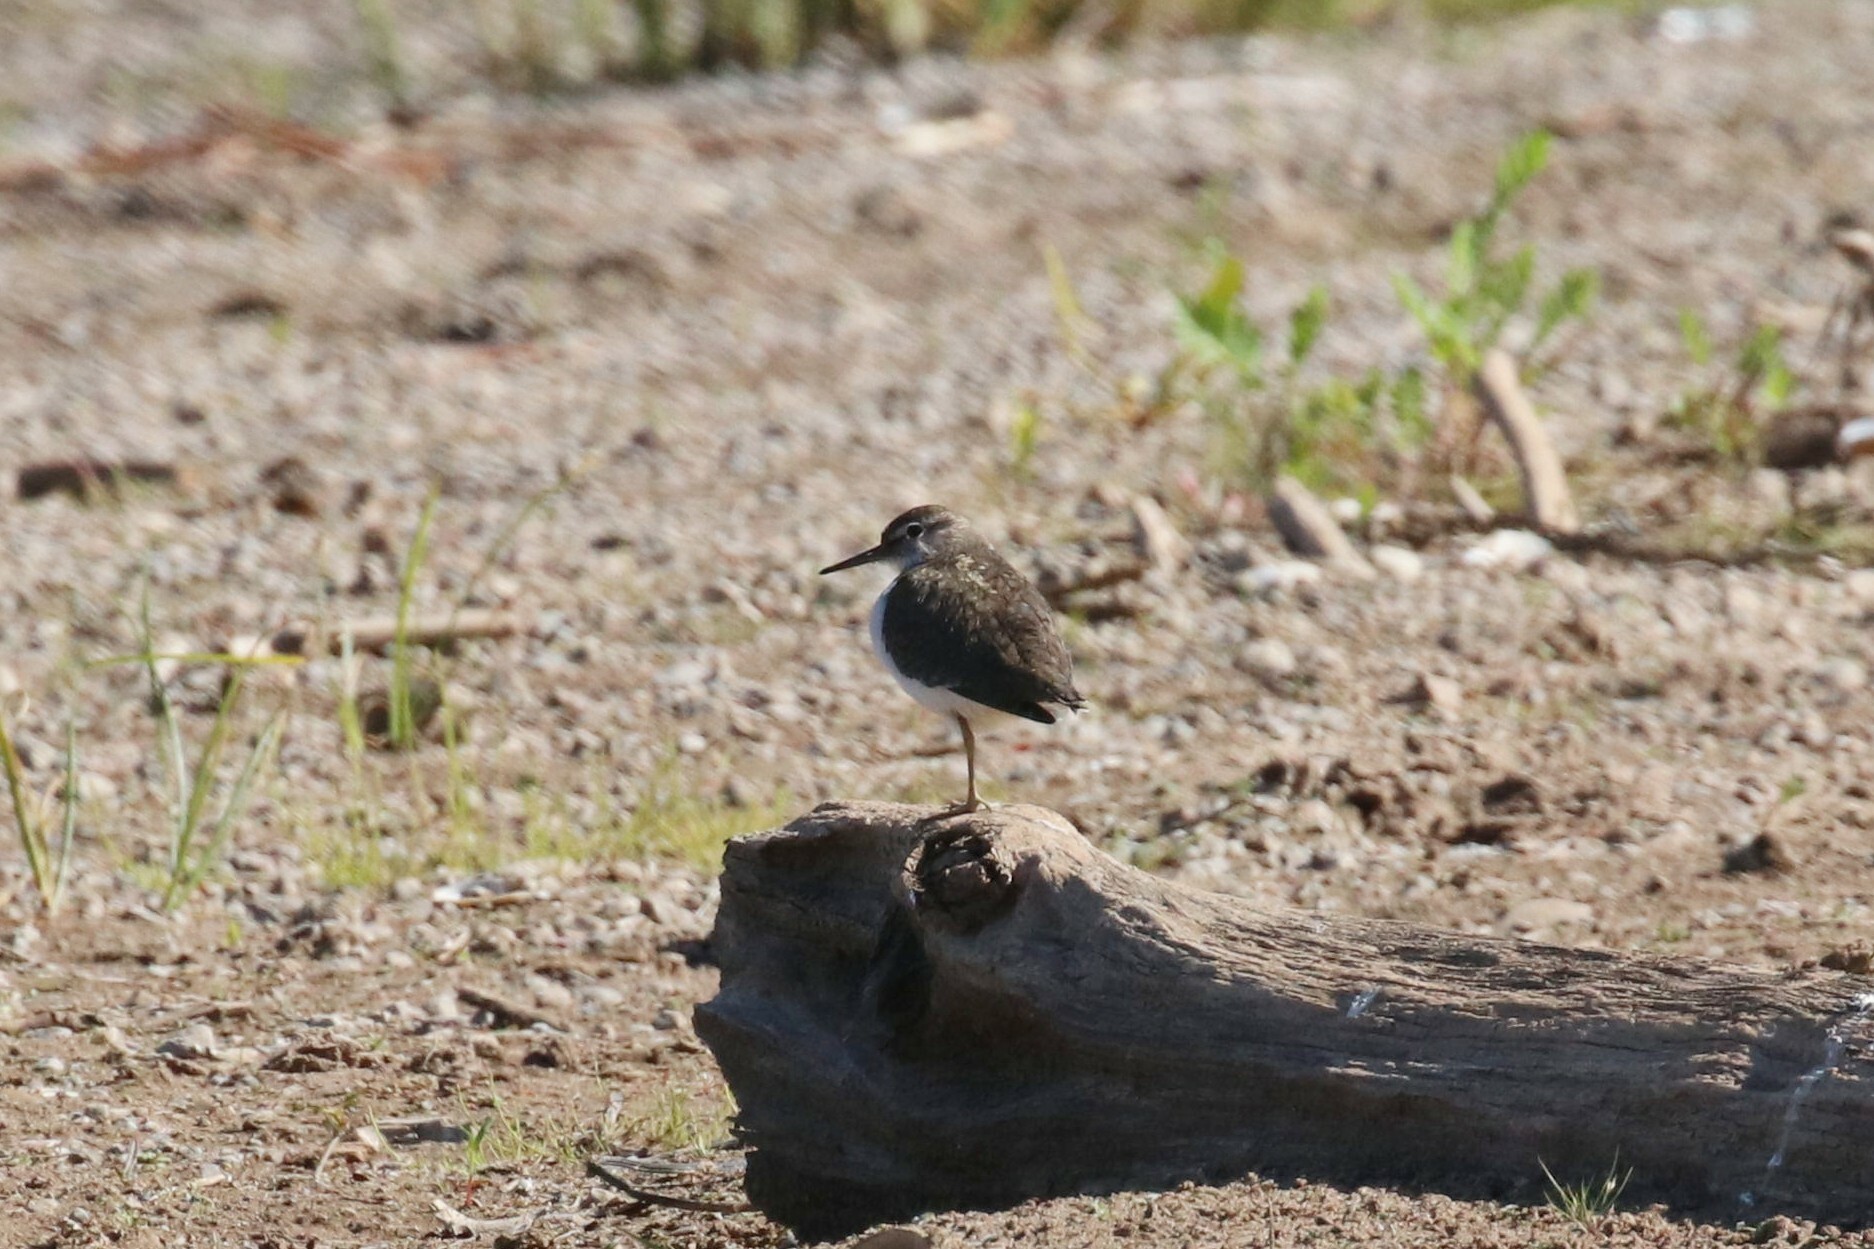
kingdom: Animalia
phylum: Chordata
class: Aves
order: Charadriiformes
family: Scolopacidae
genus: Actitis
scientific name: Actitis hypoleucos
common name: Common sandpiper
